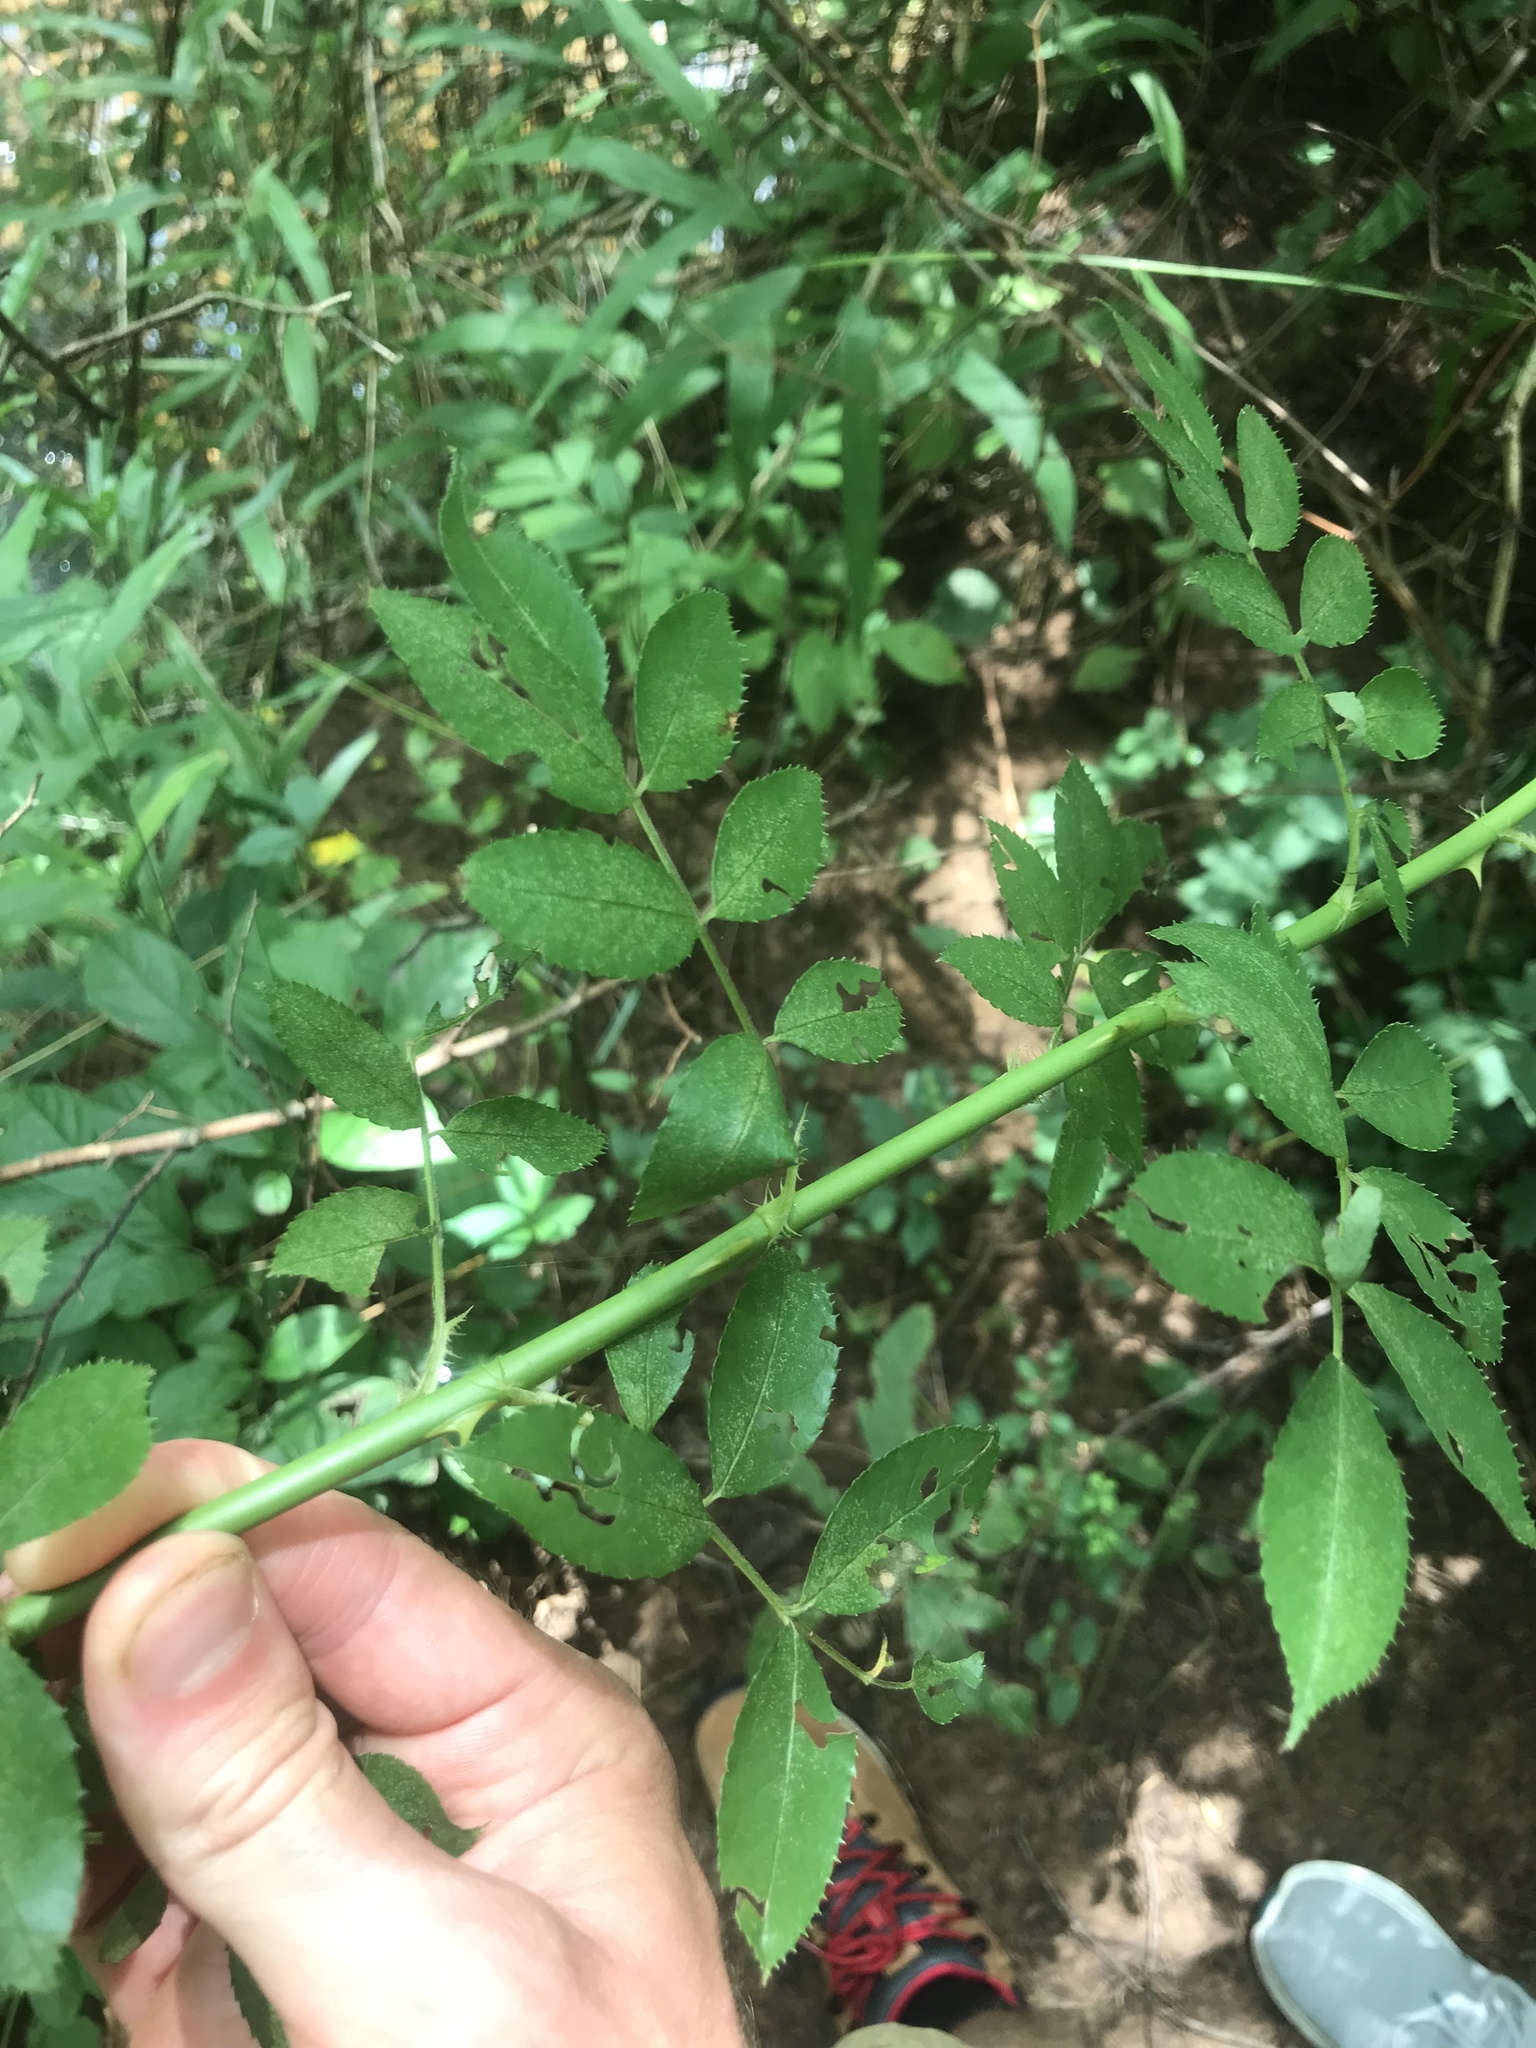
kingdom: Plantae
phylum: Tracheophyta
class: Magnoliopsida
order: Rosales
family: Rosaceae
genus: Rosa
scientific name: Rosa multiflora
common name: Multiflora rose
